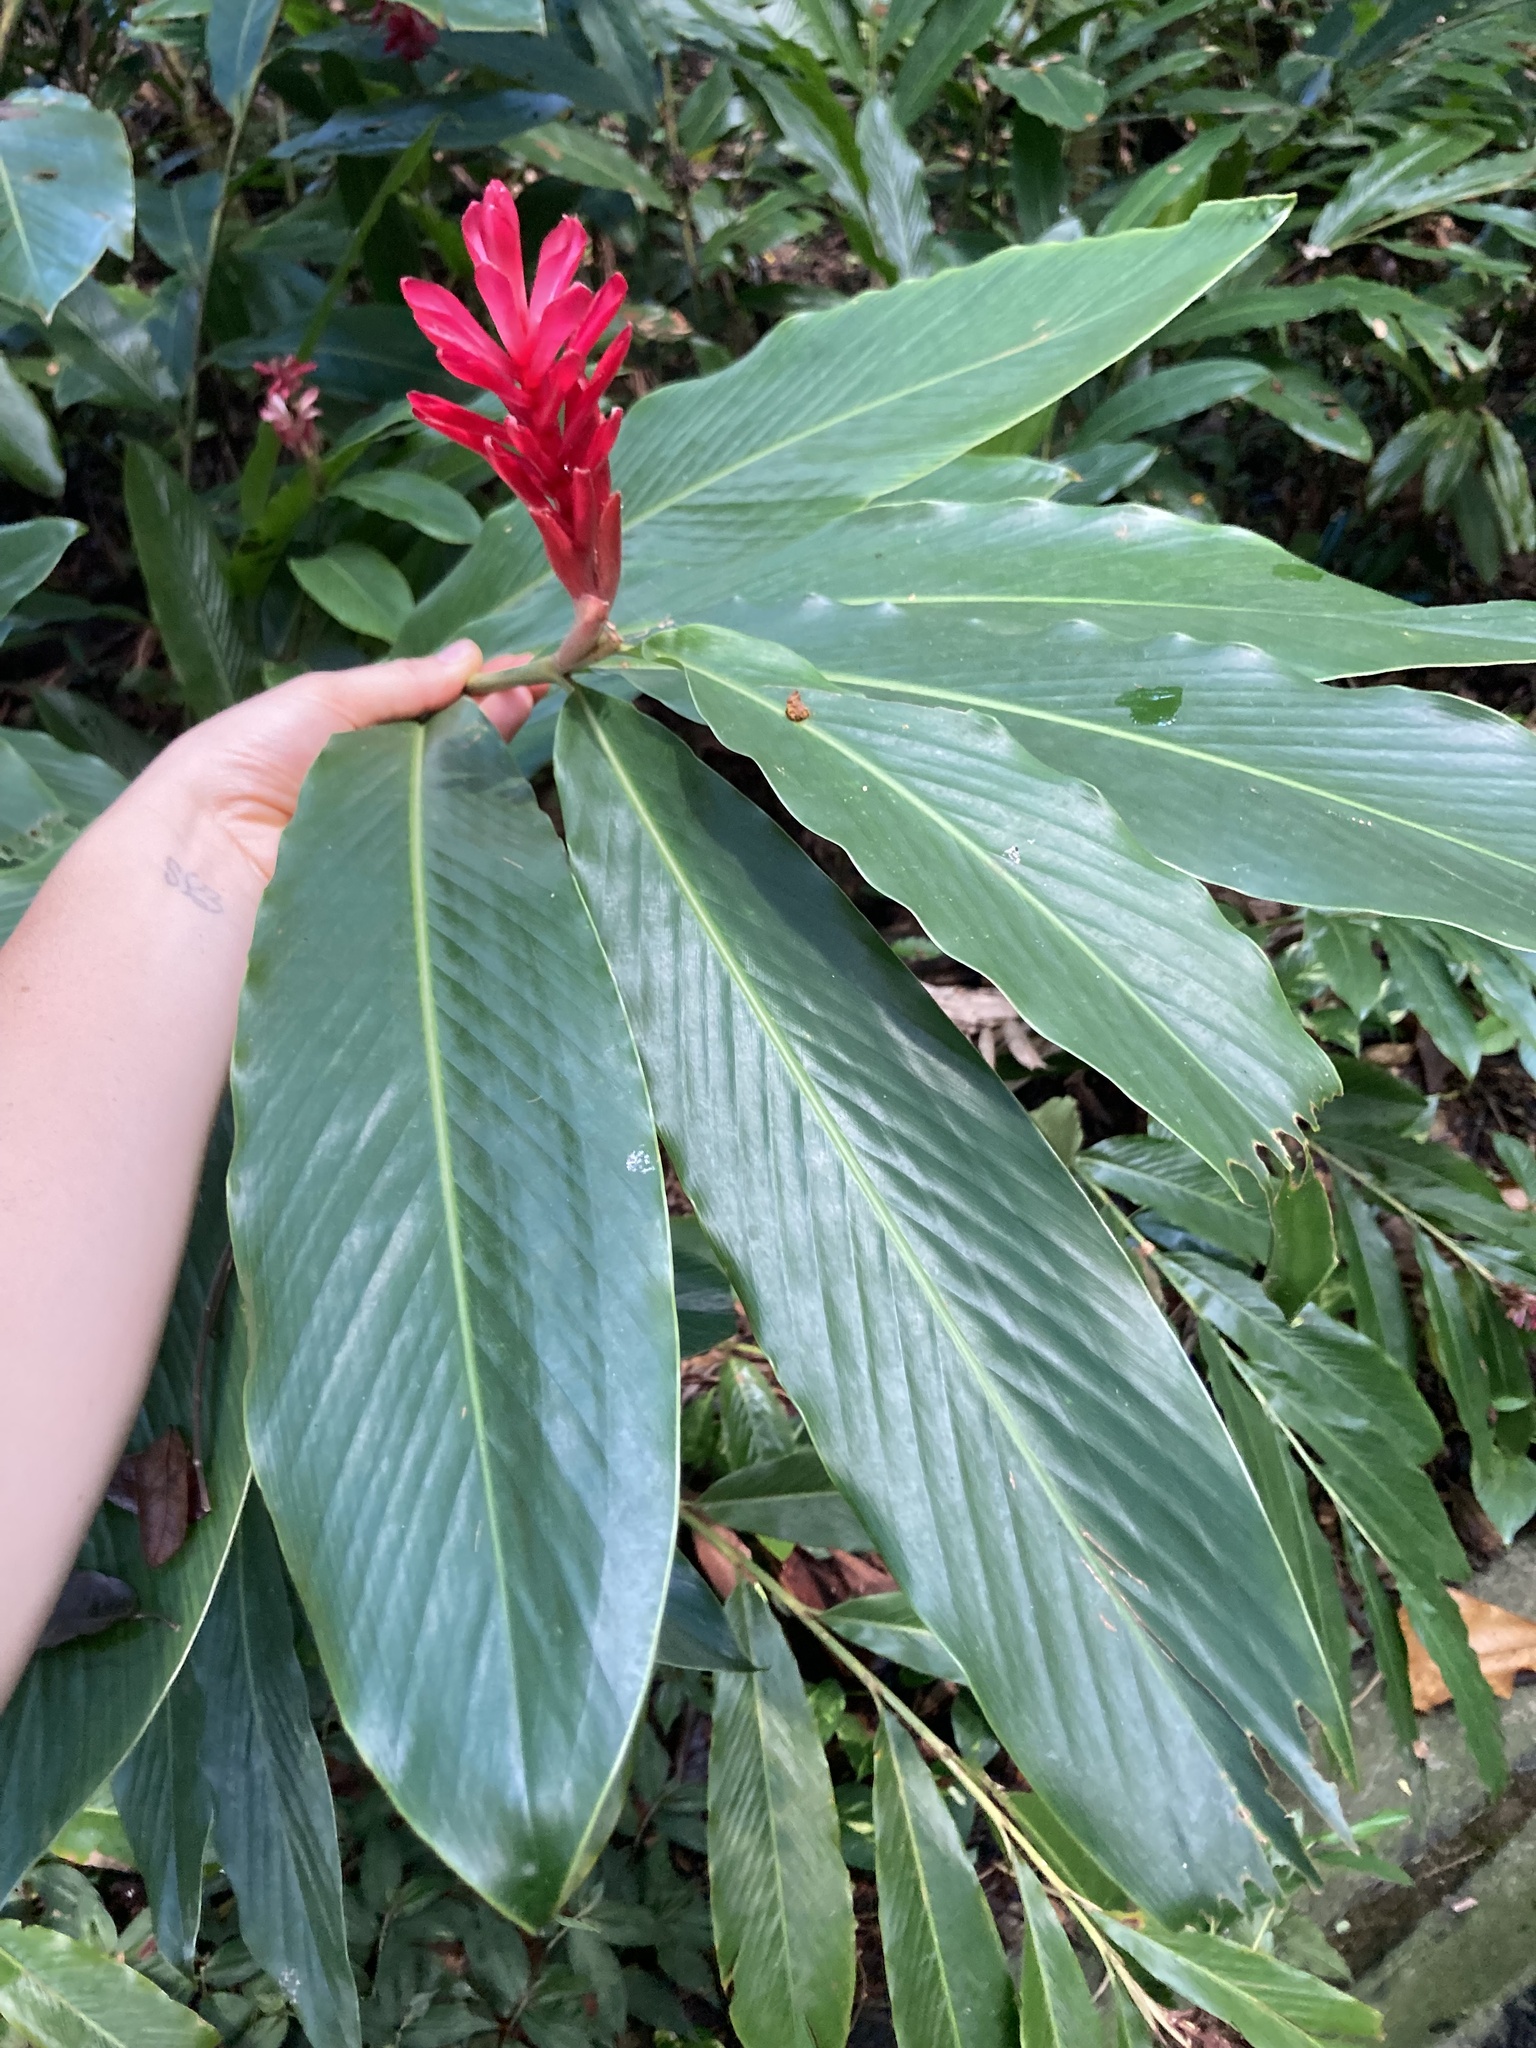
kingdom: Plantae
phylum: Tracheophyta
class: Liliopsida
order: Zingiberales
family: Zingiberaceae
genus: Alpinia
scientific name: Alpinia purpurata
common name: Red ginger
